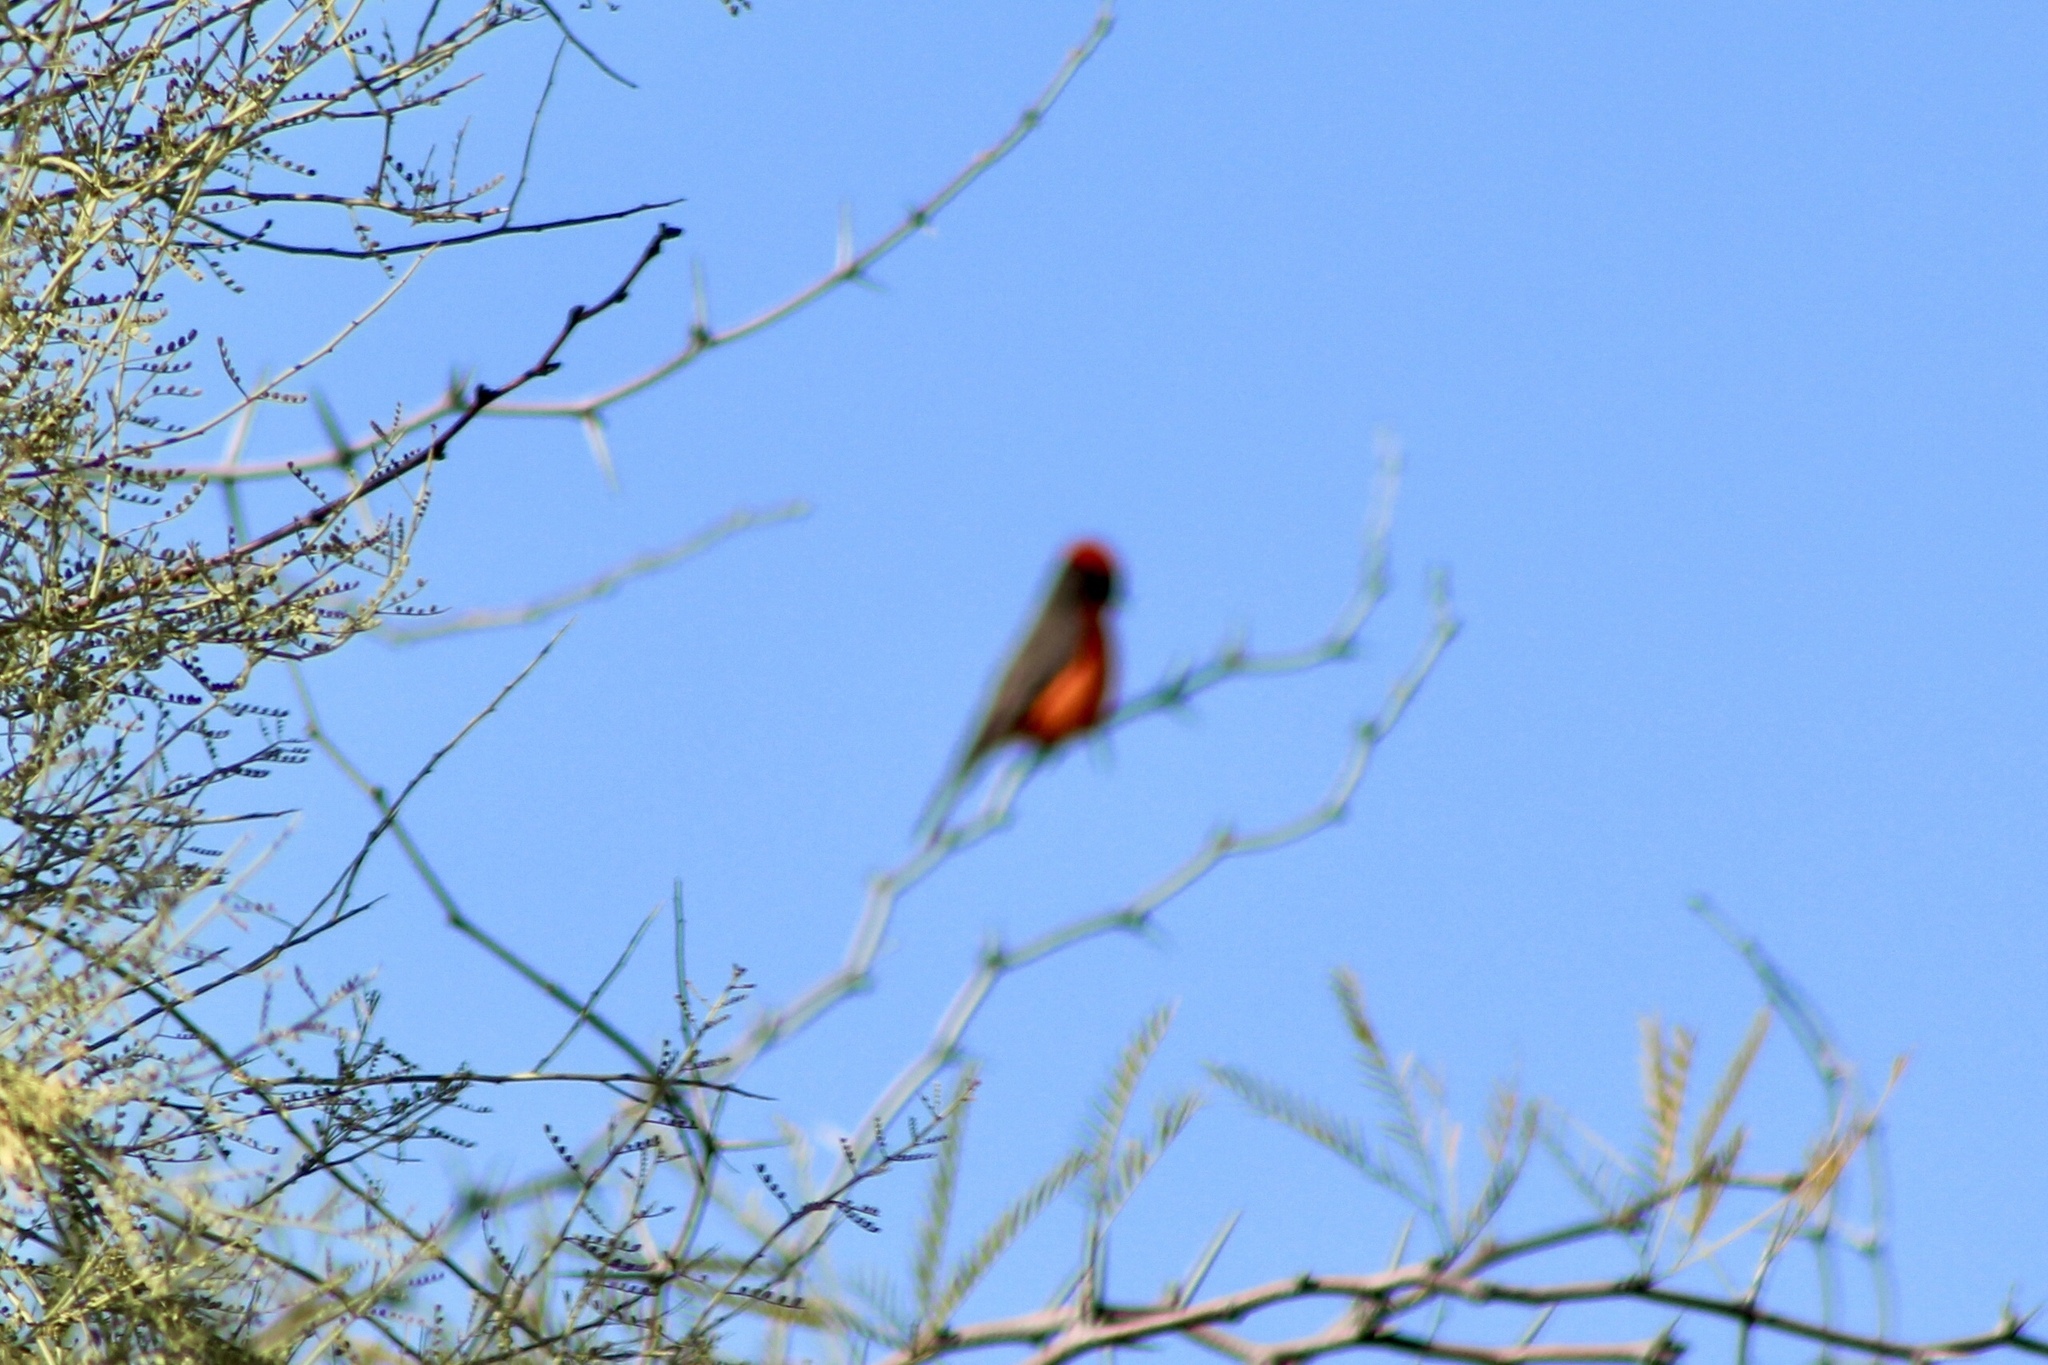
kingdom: Animalia
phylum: Chordata
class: Aves
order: Passeriformes
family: Tyrannidae
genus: Pyrocephalus
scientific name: Pyrocephalus rubinus
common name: Vermilion flycatcher
